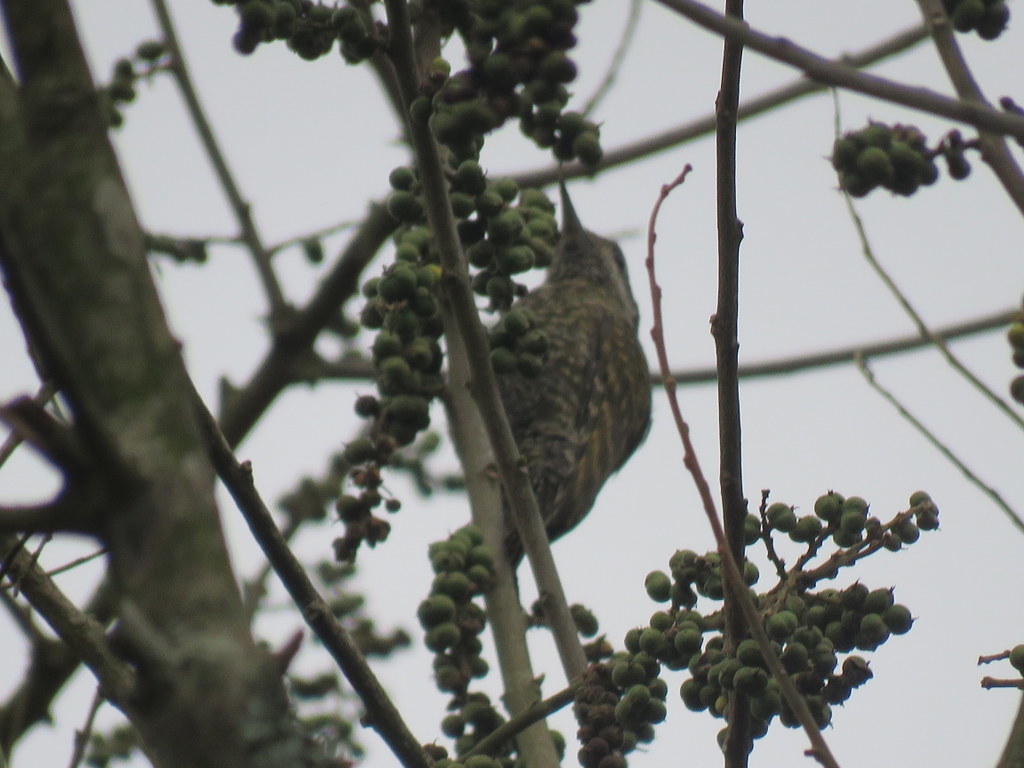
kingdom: Animalia
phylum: Chordata
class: Aves
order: Piciformes
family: Picidae
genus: Veniliornis
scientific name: Veniliornis spilogaster
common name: White-spotted woodpecker
